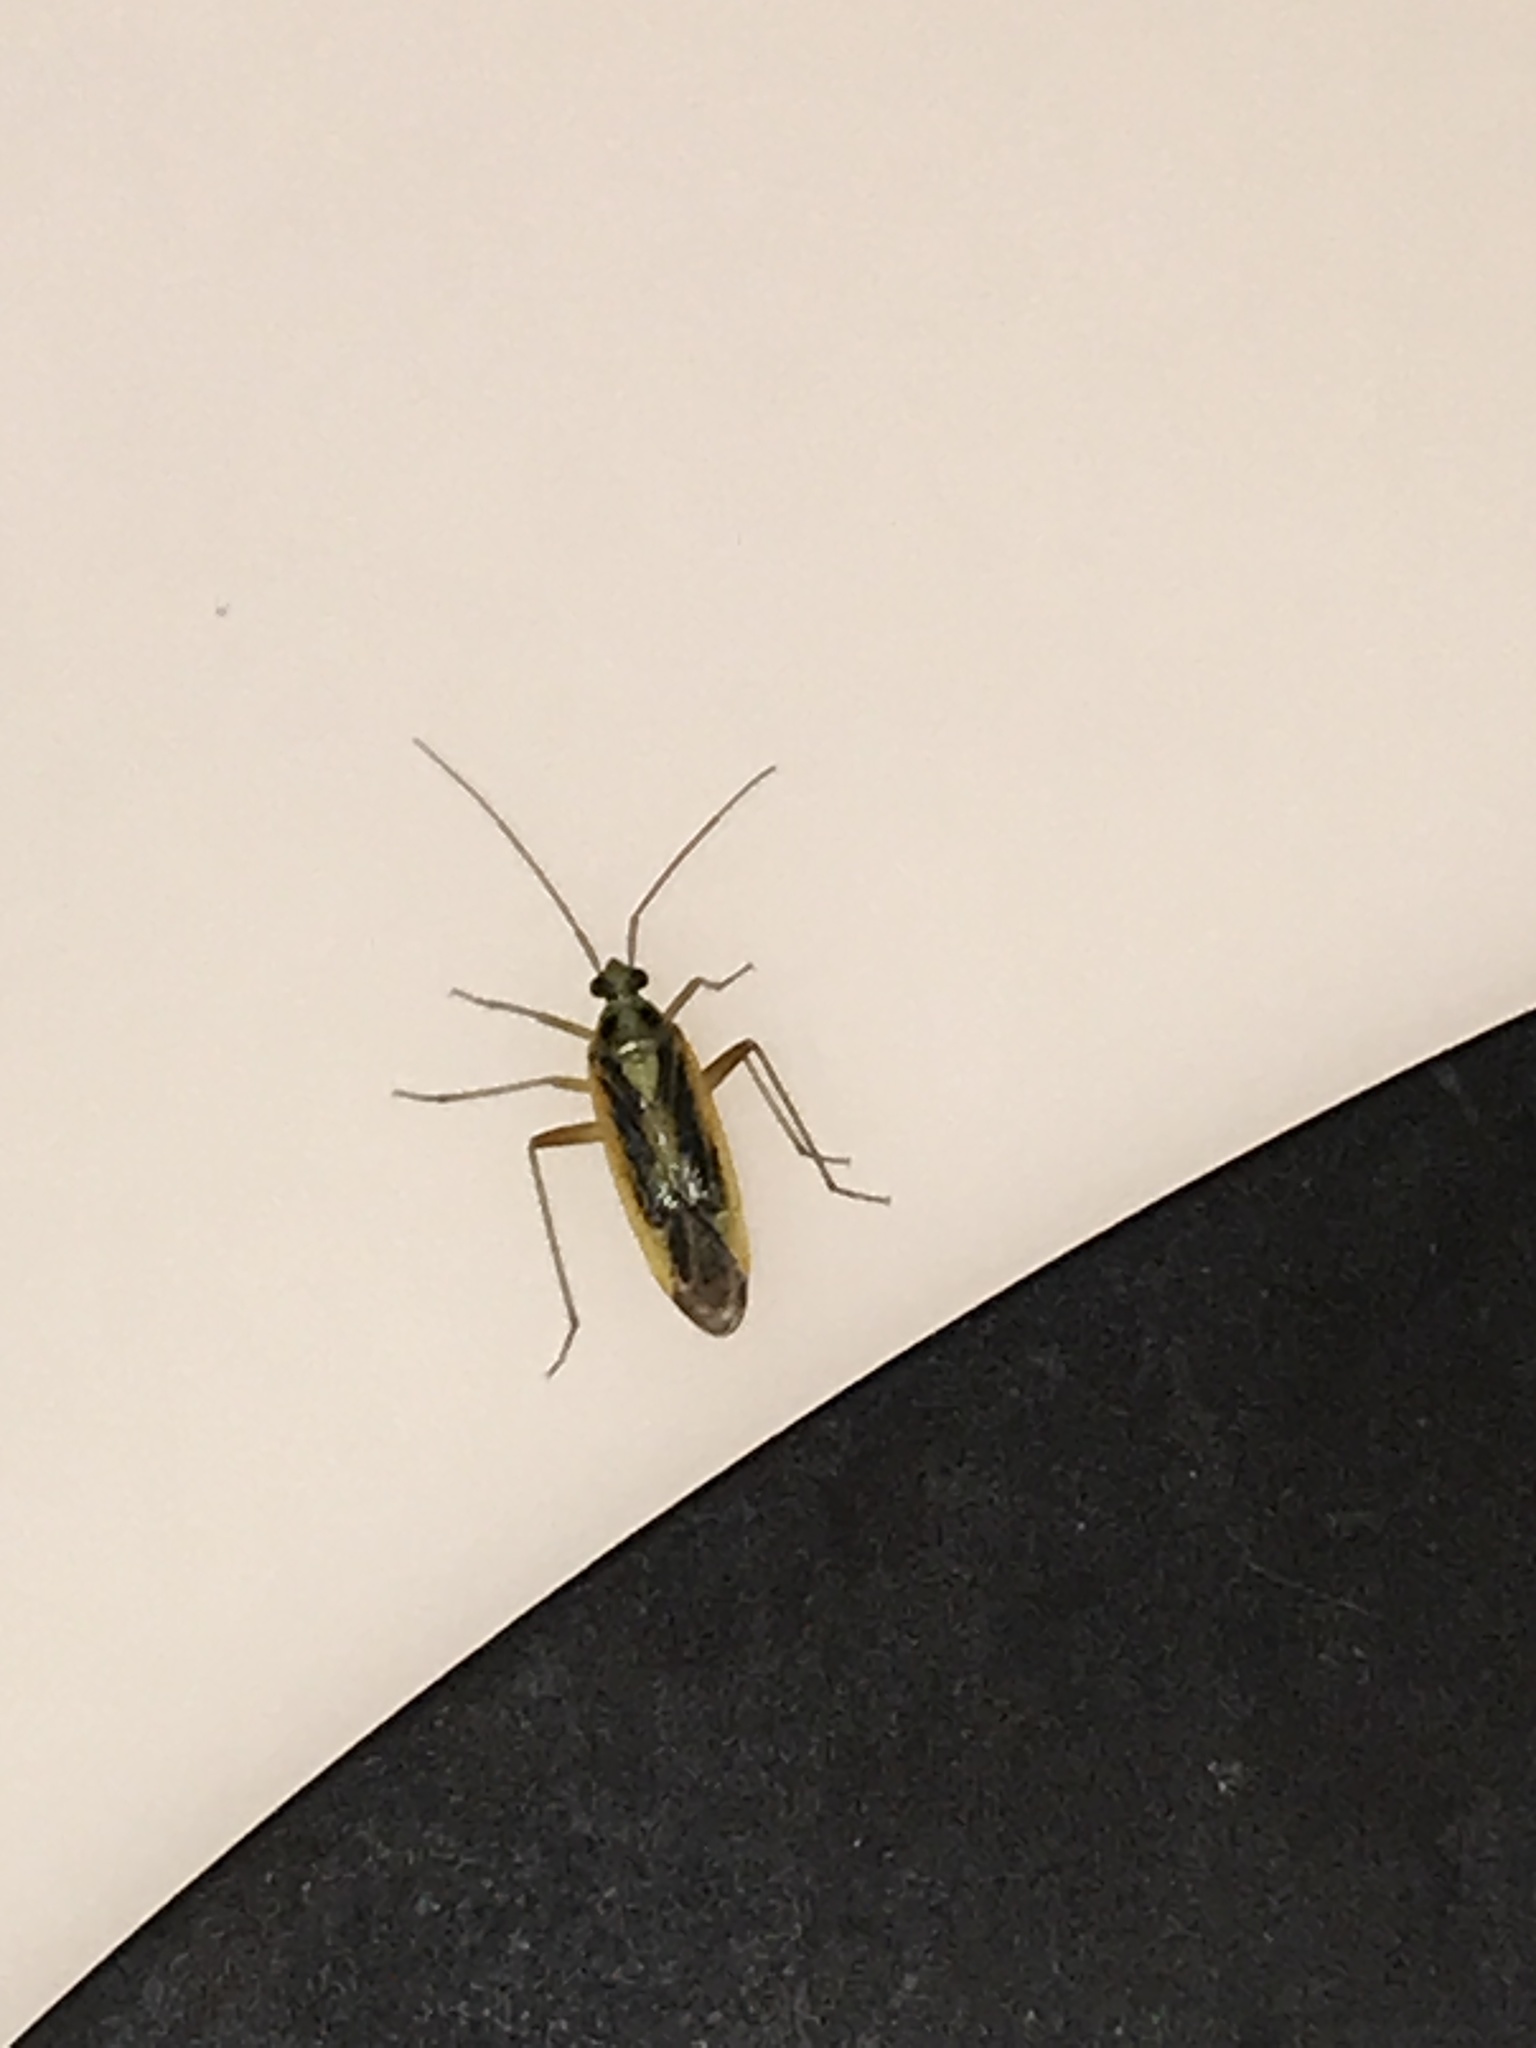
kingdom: Animalia
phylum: Arthropoda
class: Insecta
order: Hemiptera
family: Miridae
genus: Stenotus
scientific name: Stenotus binotatus
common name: Plant bug
